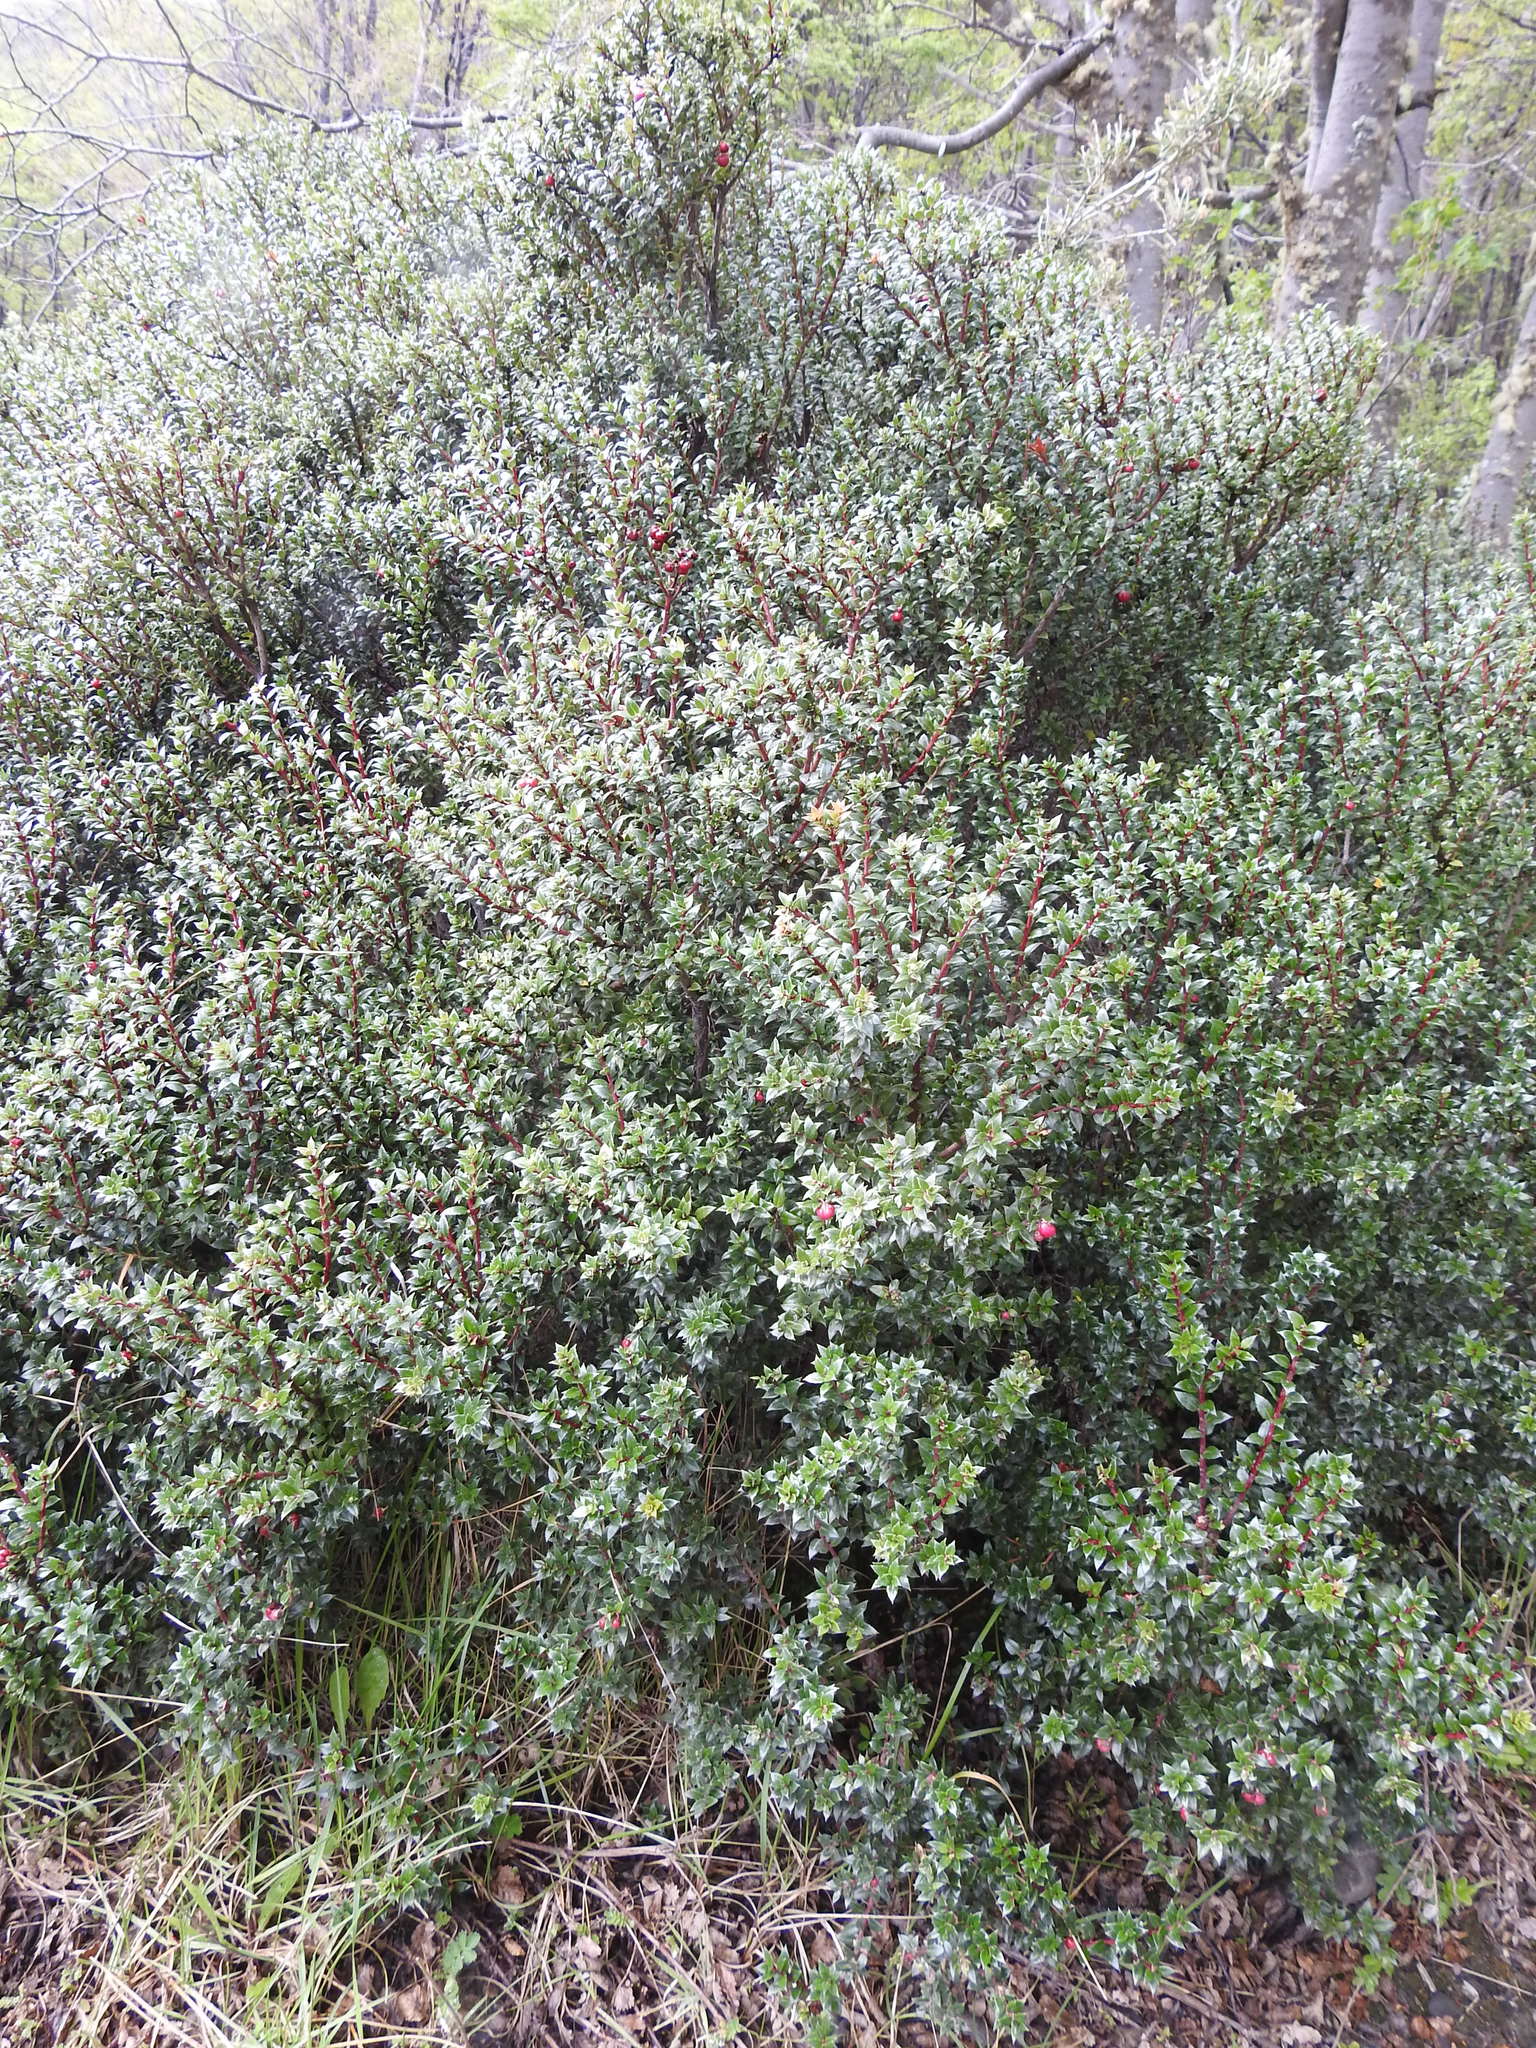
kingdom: Plantae
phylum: Tracheophyta
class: Magnoliopsida
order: Ericales
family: Ericaceae
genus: Gaultheria
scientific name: Gaultheria mucronata
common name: Prickly heath
